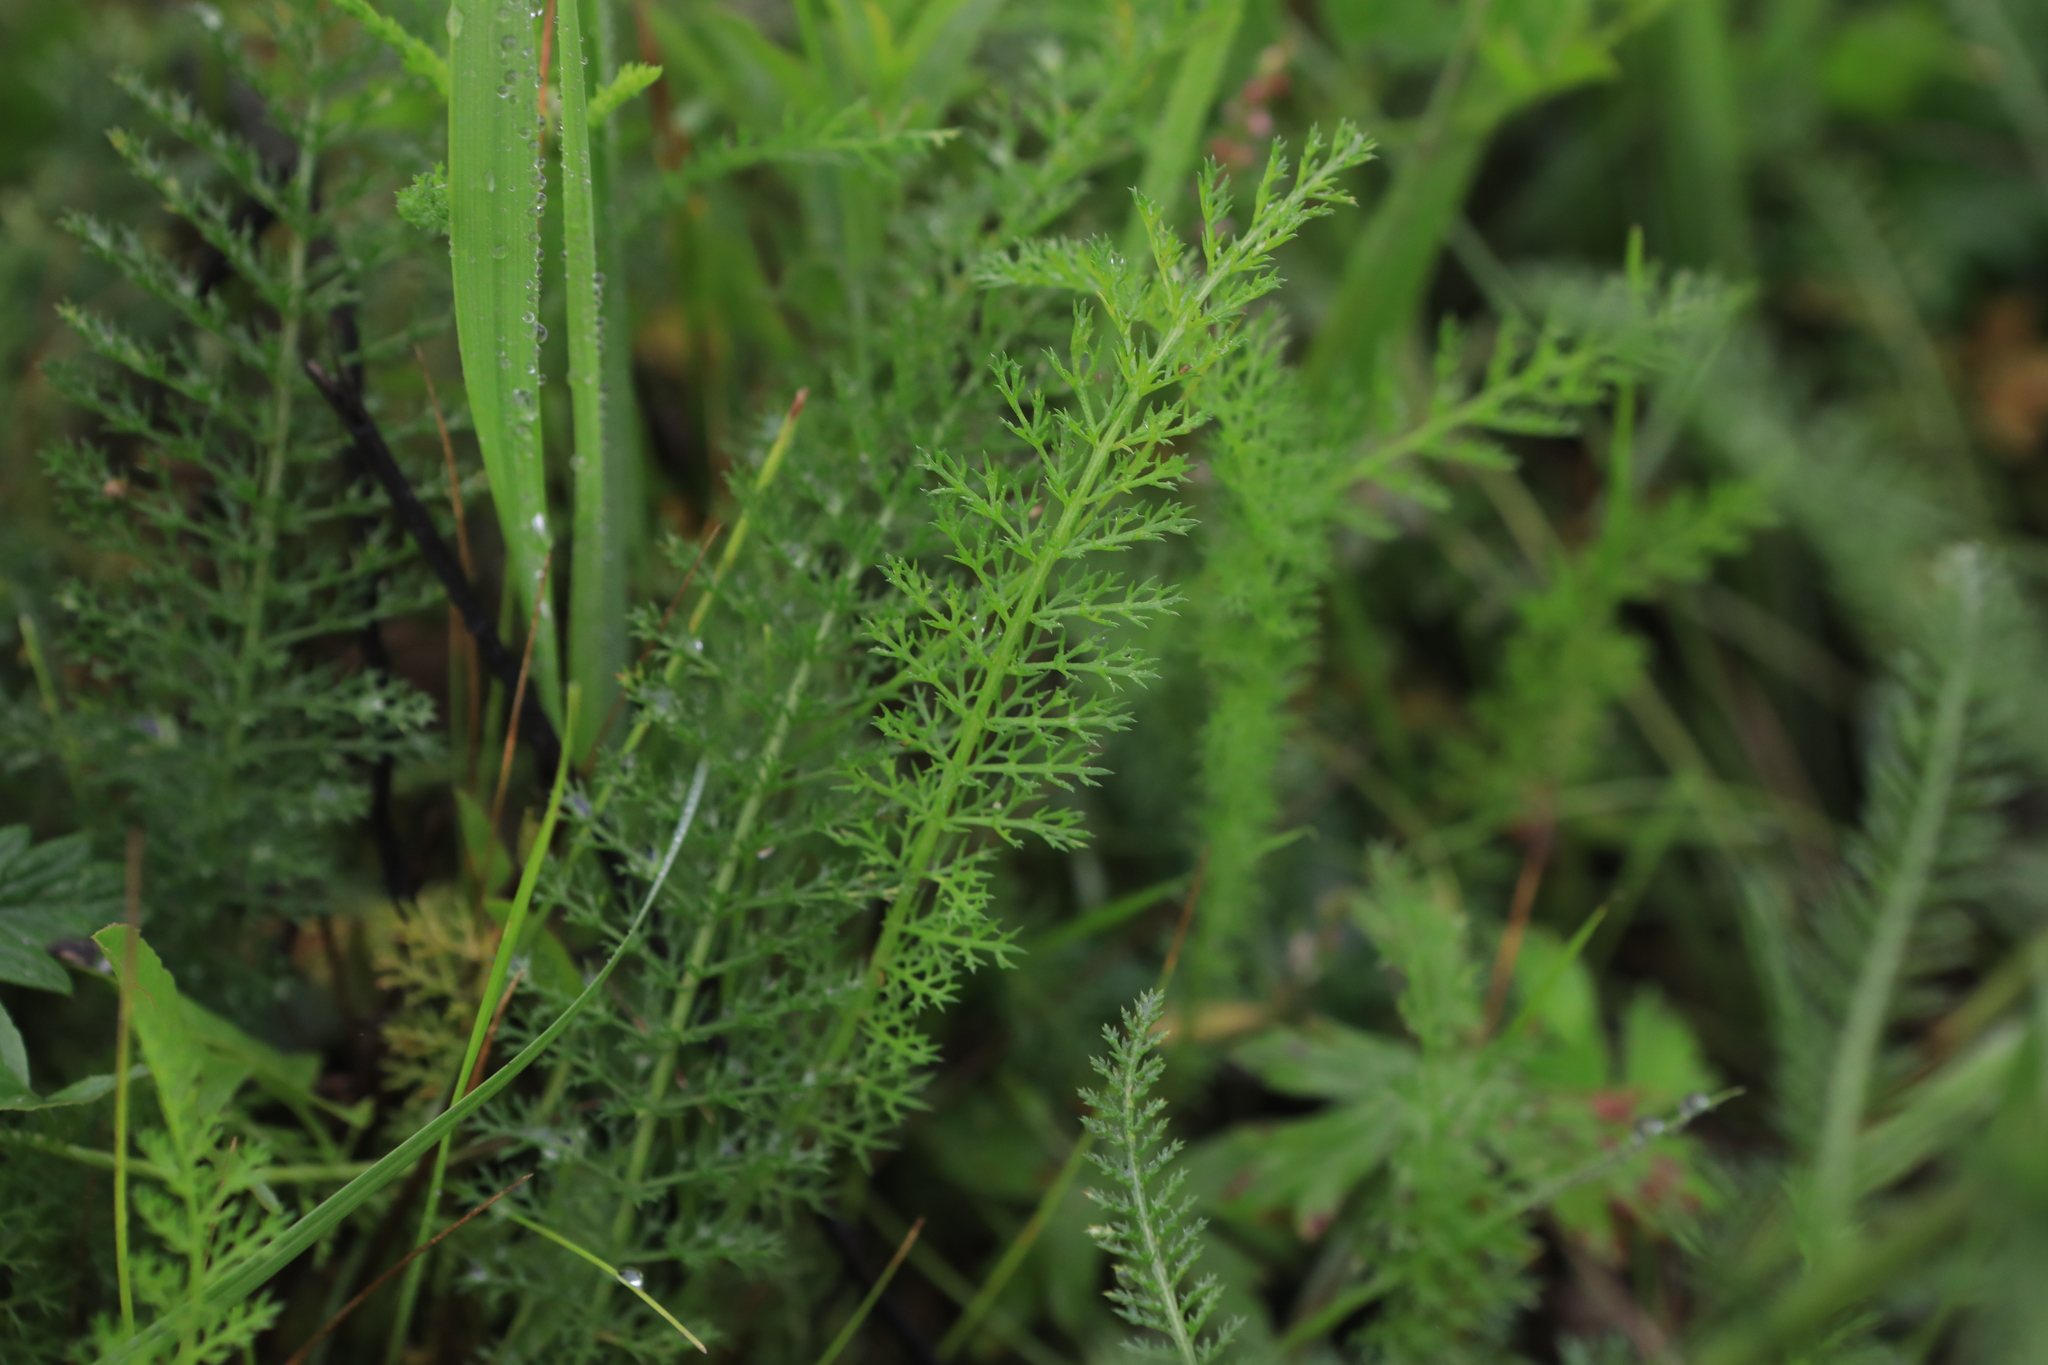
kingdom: Plantae
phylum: Tracheophyta
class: Magnoliopsida
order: Asterales
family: Asteraceae
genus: Achillea
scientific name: Achillea millefolium
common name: Yarrow
